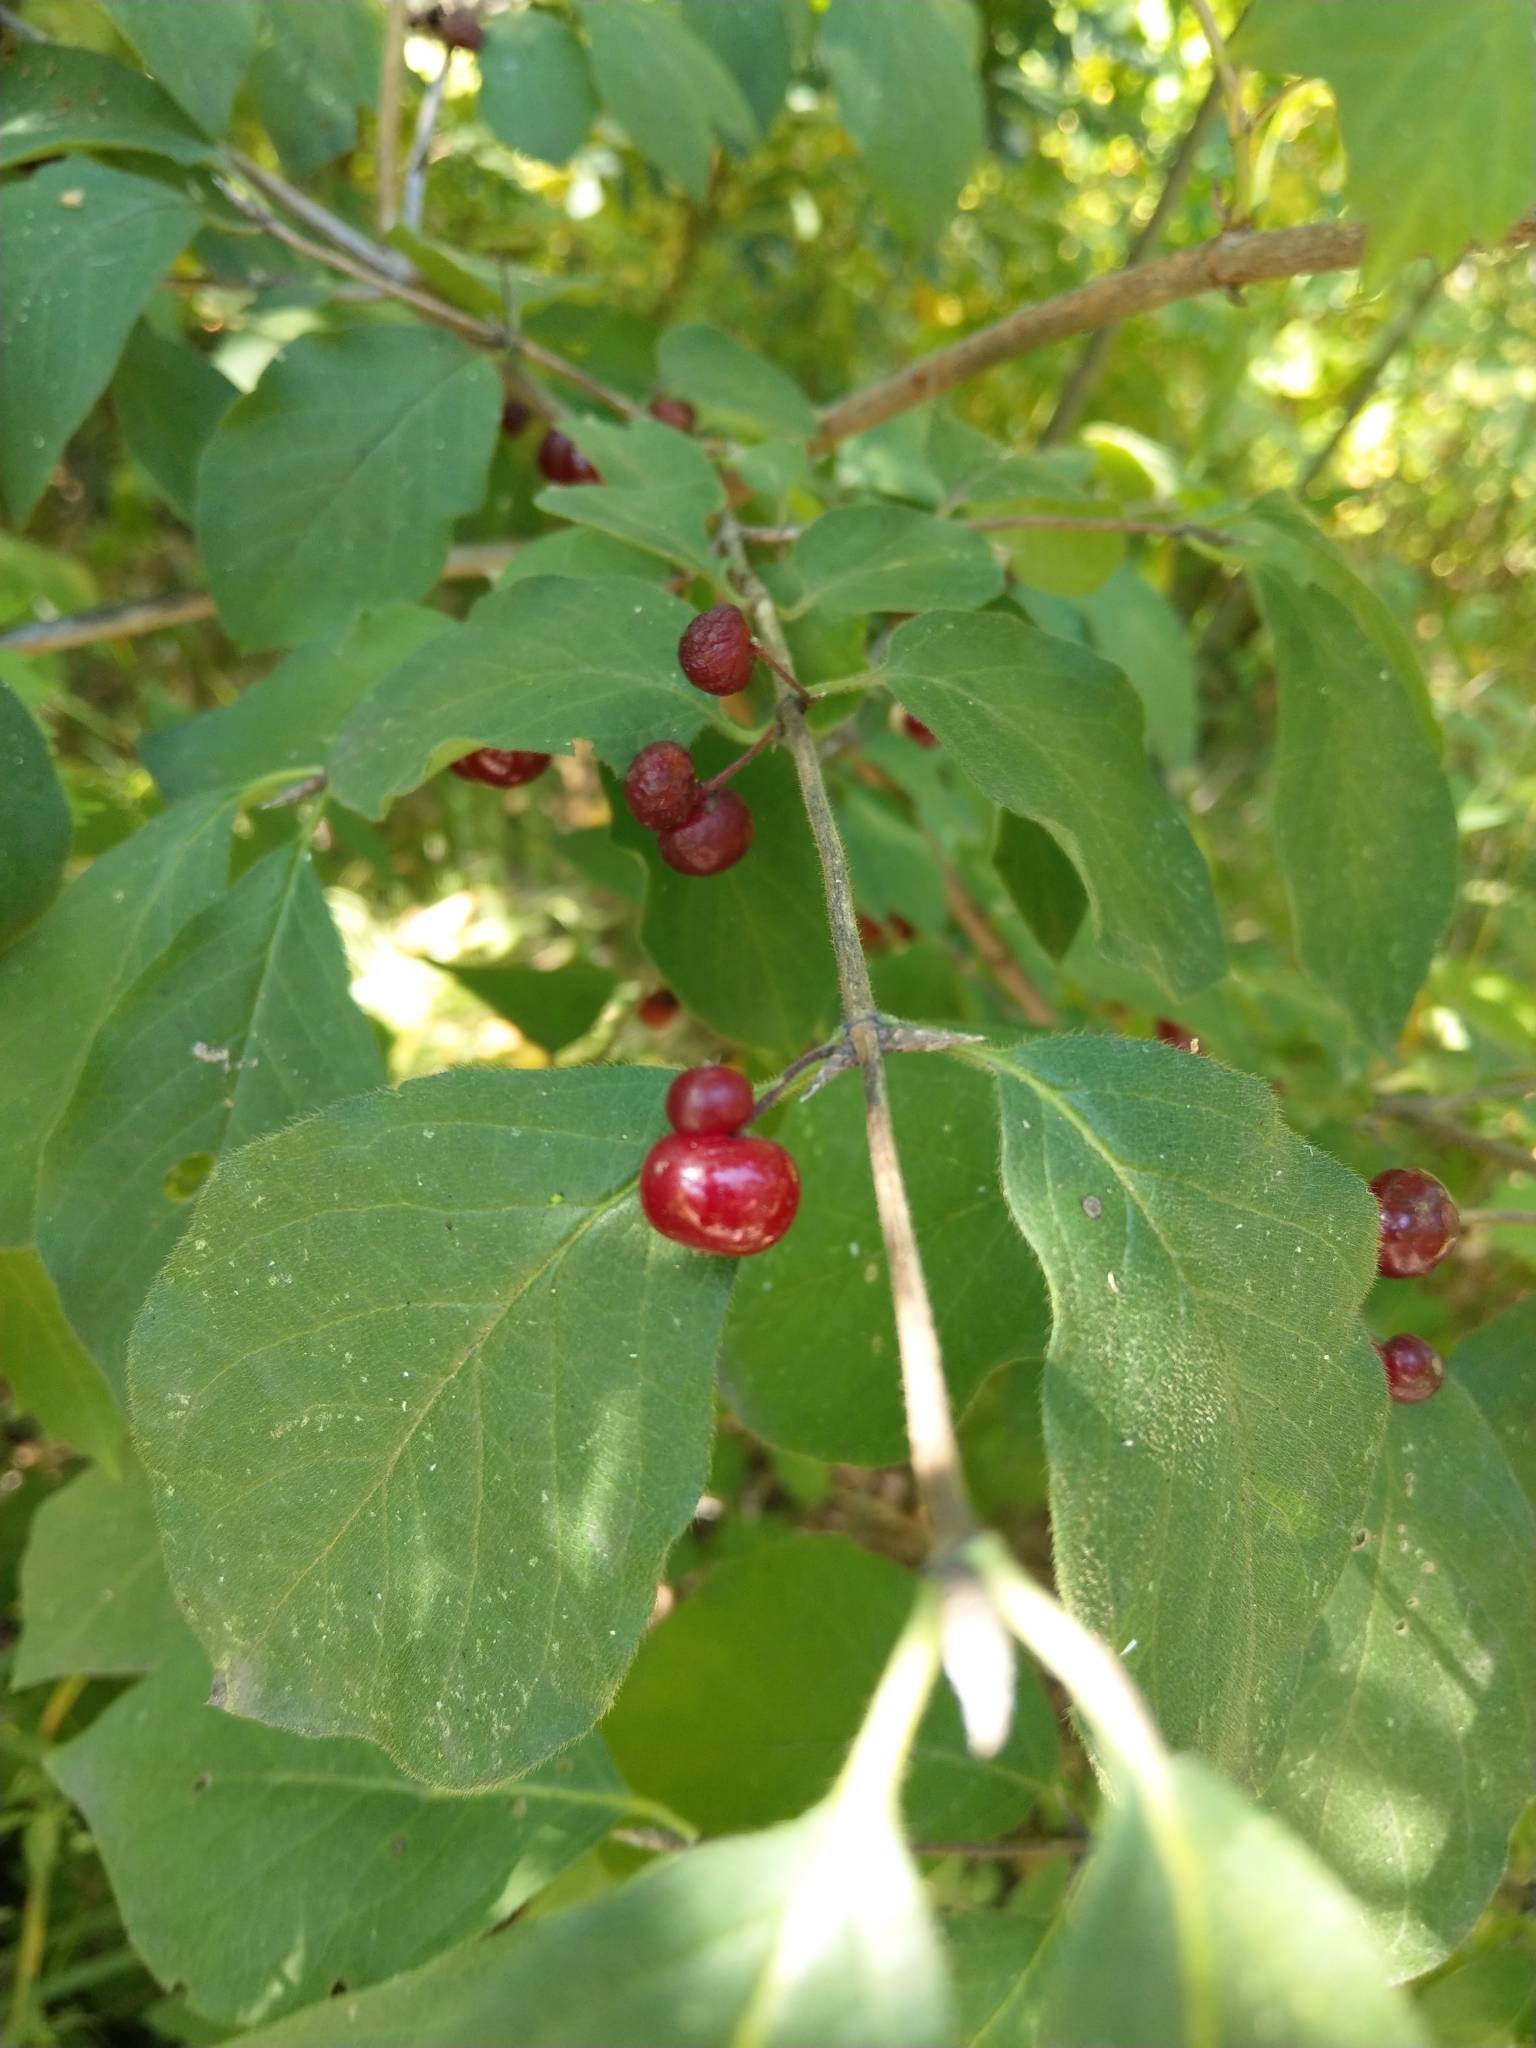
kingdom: Plantae
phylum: Tracheophyta
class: Magnoliopsida
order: Dipsacales
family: Caprifoliaceae
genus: Lonicera
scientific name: Lonicera xylosteum
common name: Fly honeysuckle
